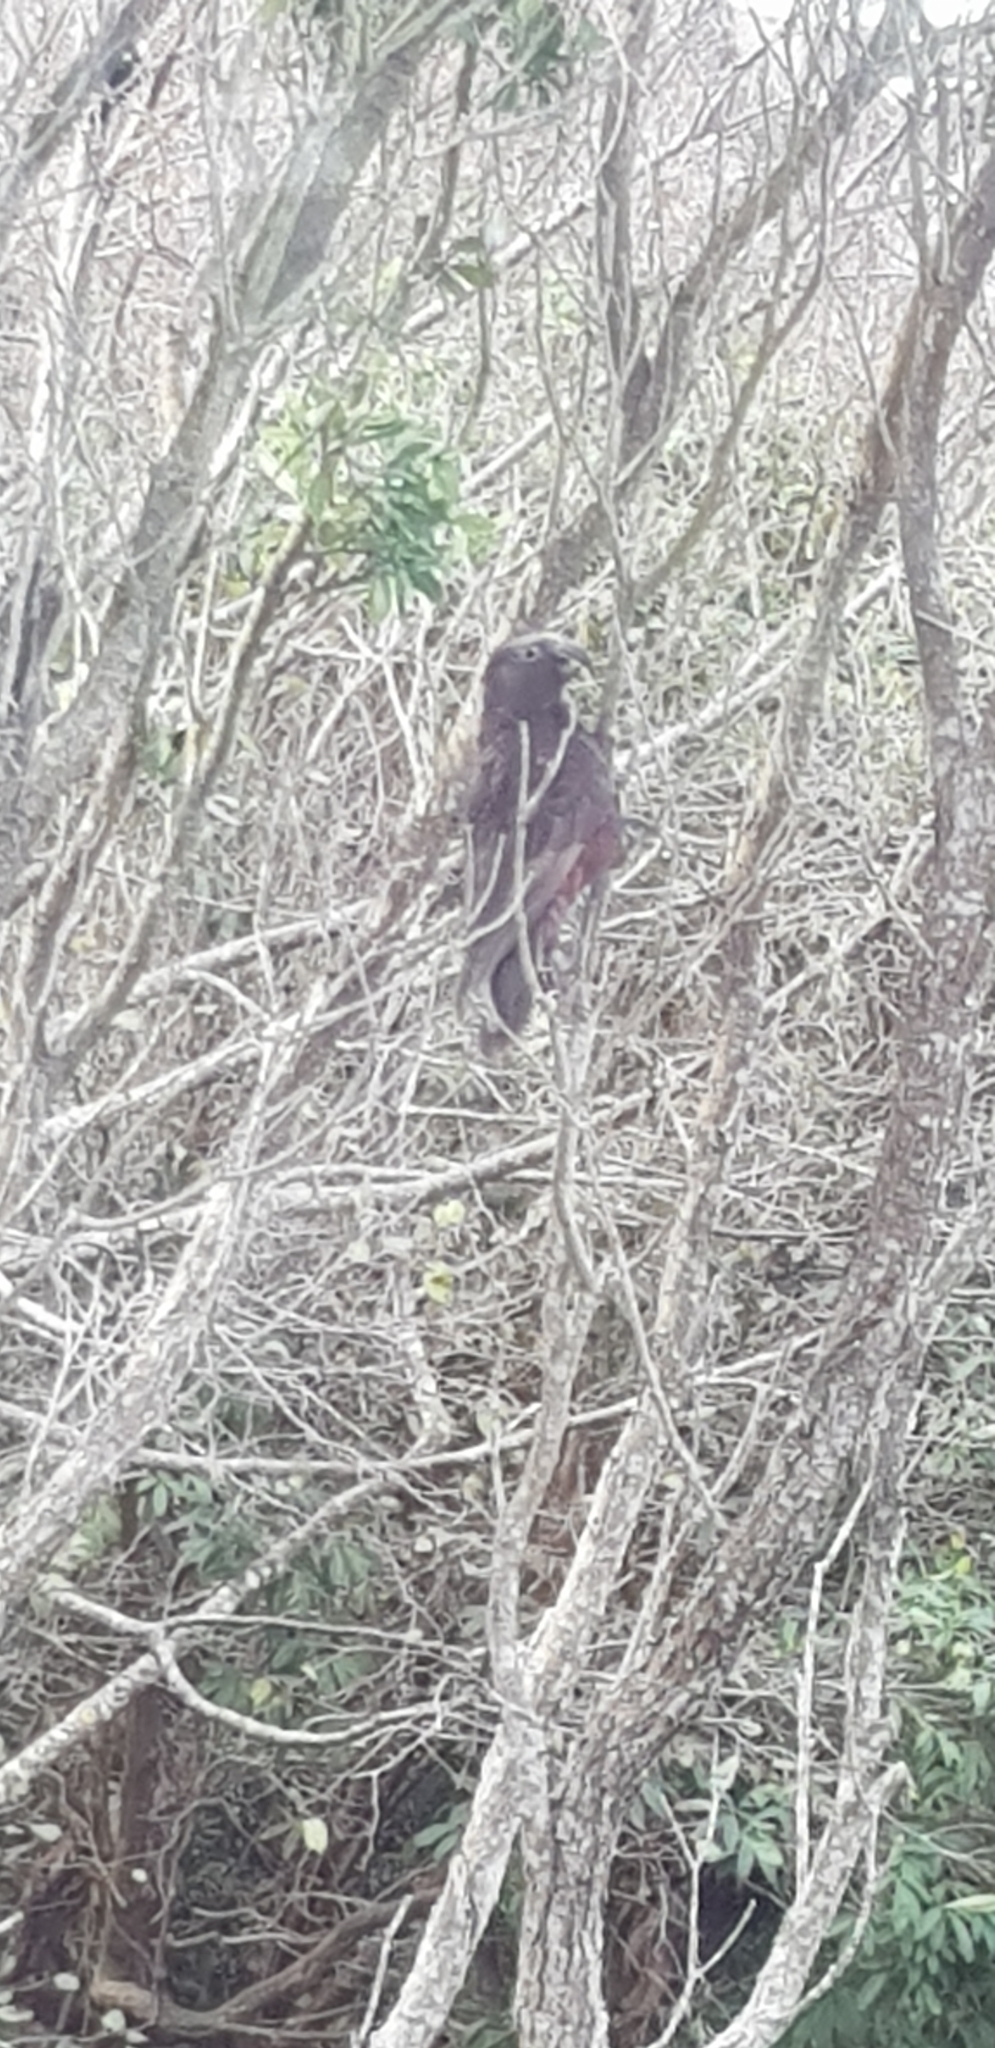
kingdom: Animalia
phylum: Chordata
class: Aves
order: Psittaciformes
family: Psittacidae
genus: Nestor
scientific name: Nestor meridionalis
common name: New zealand kaka
